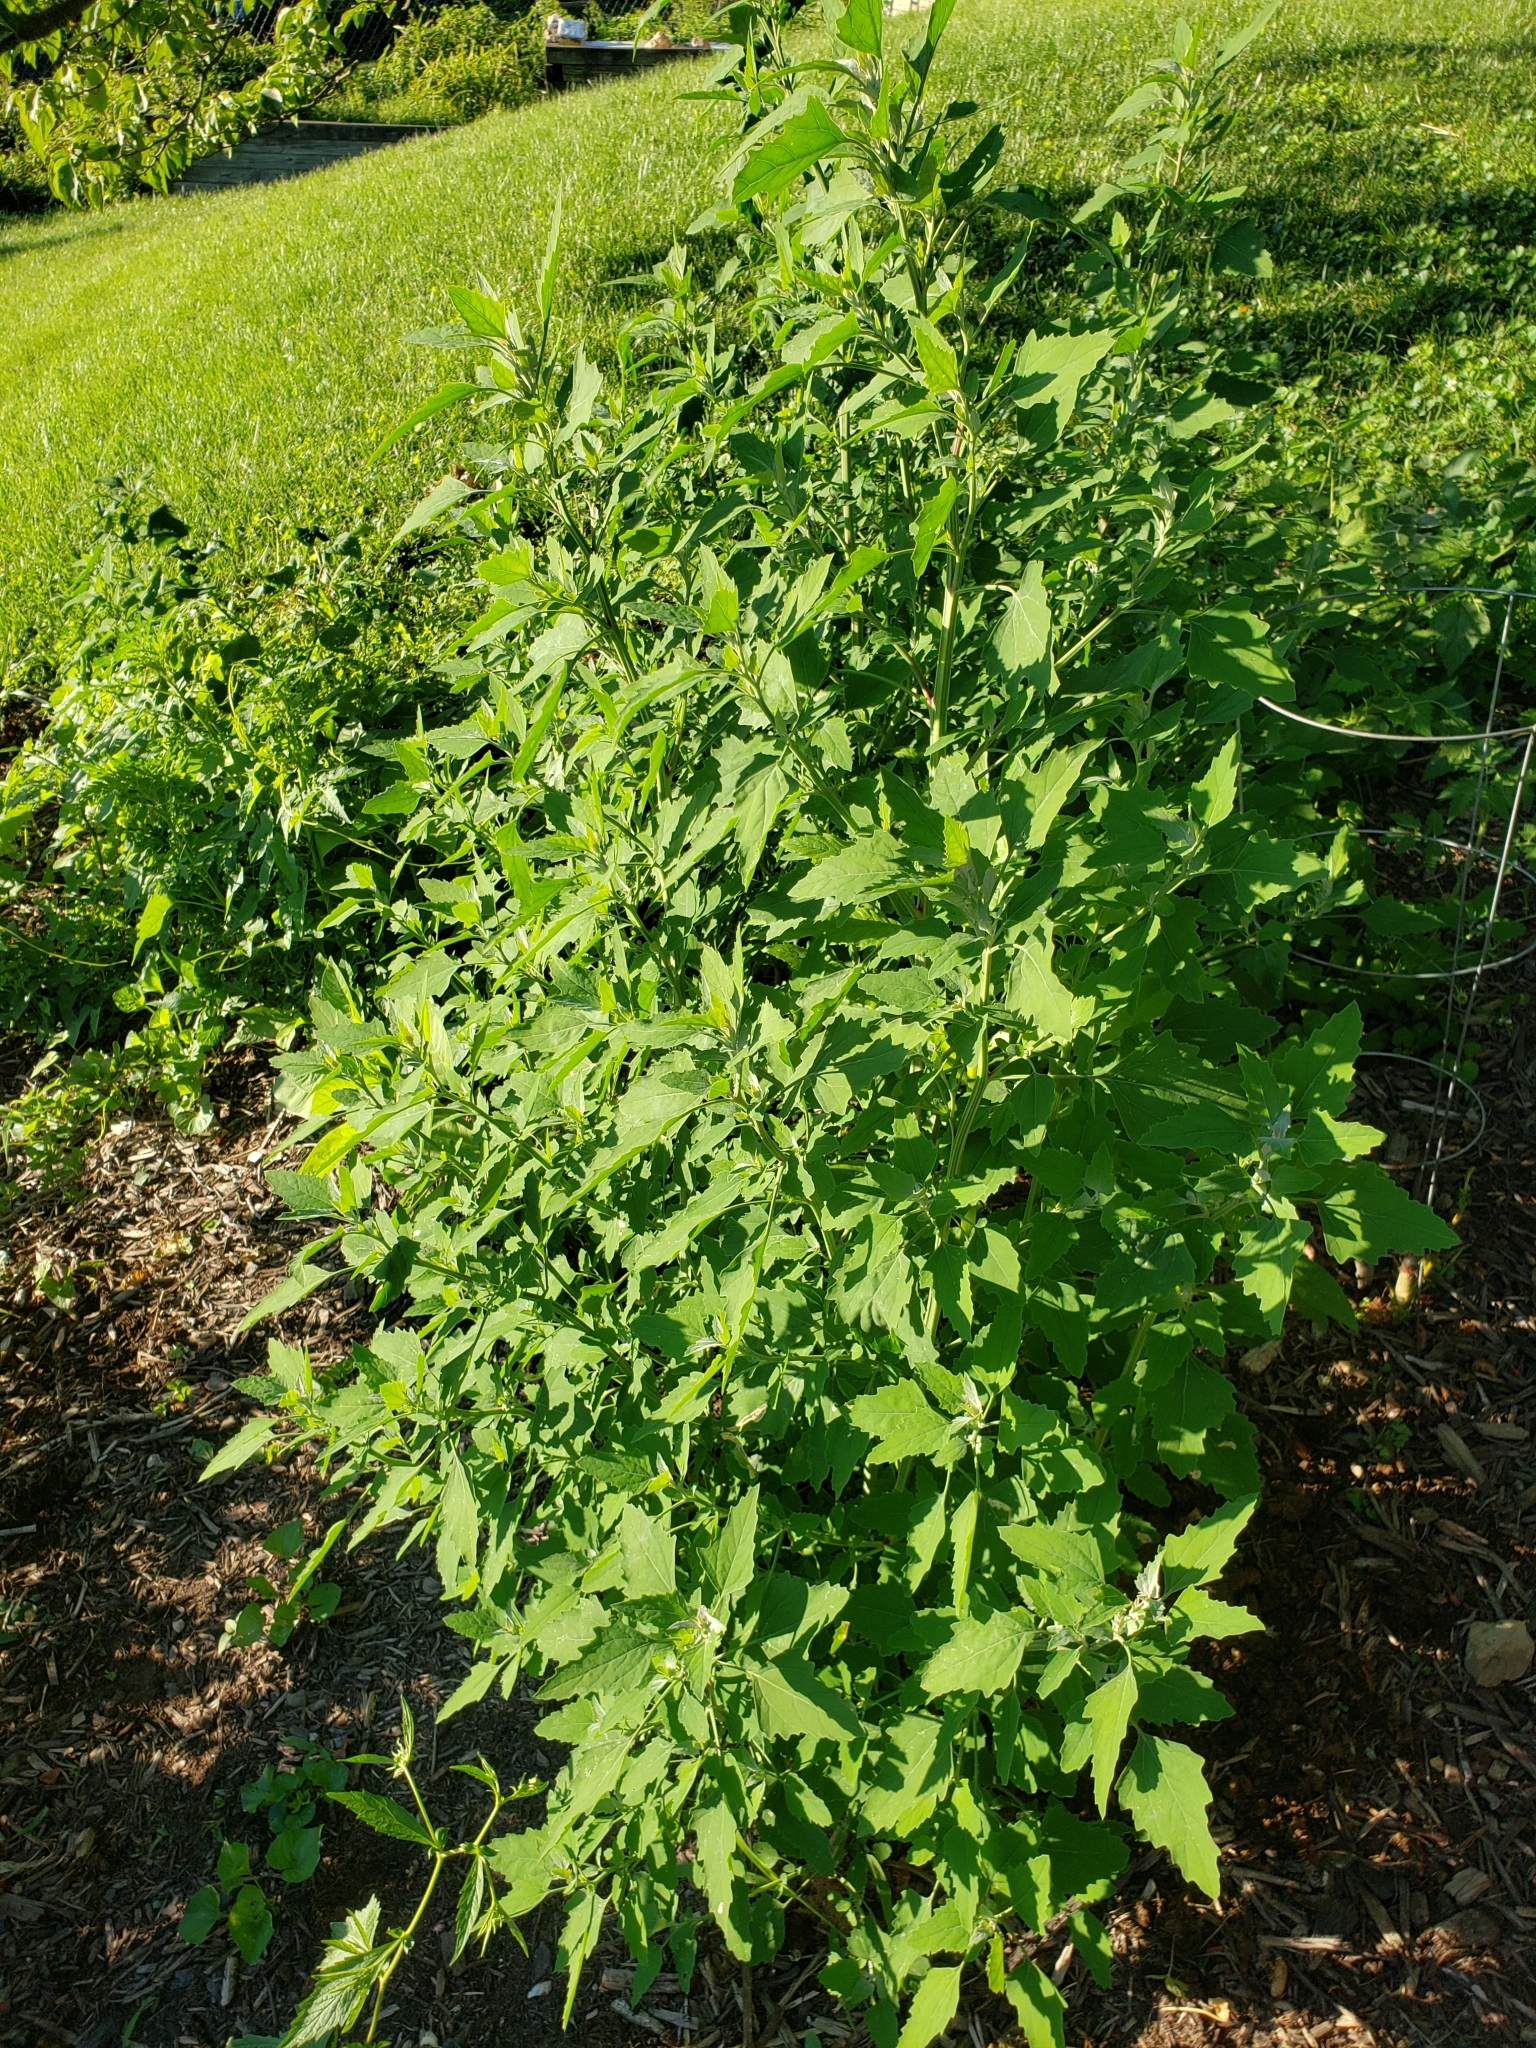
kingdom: Plantae
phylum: Tracheophyta
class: Magnoliopsida
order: Caryophyllales
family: Amaranthaceae
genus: Chenopodium
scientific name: Chenopodium album
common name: Fat-hen
